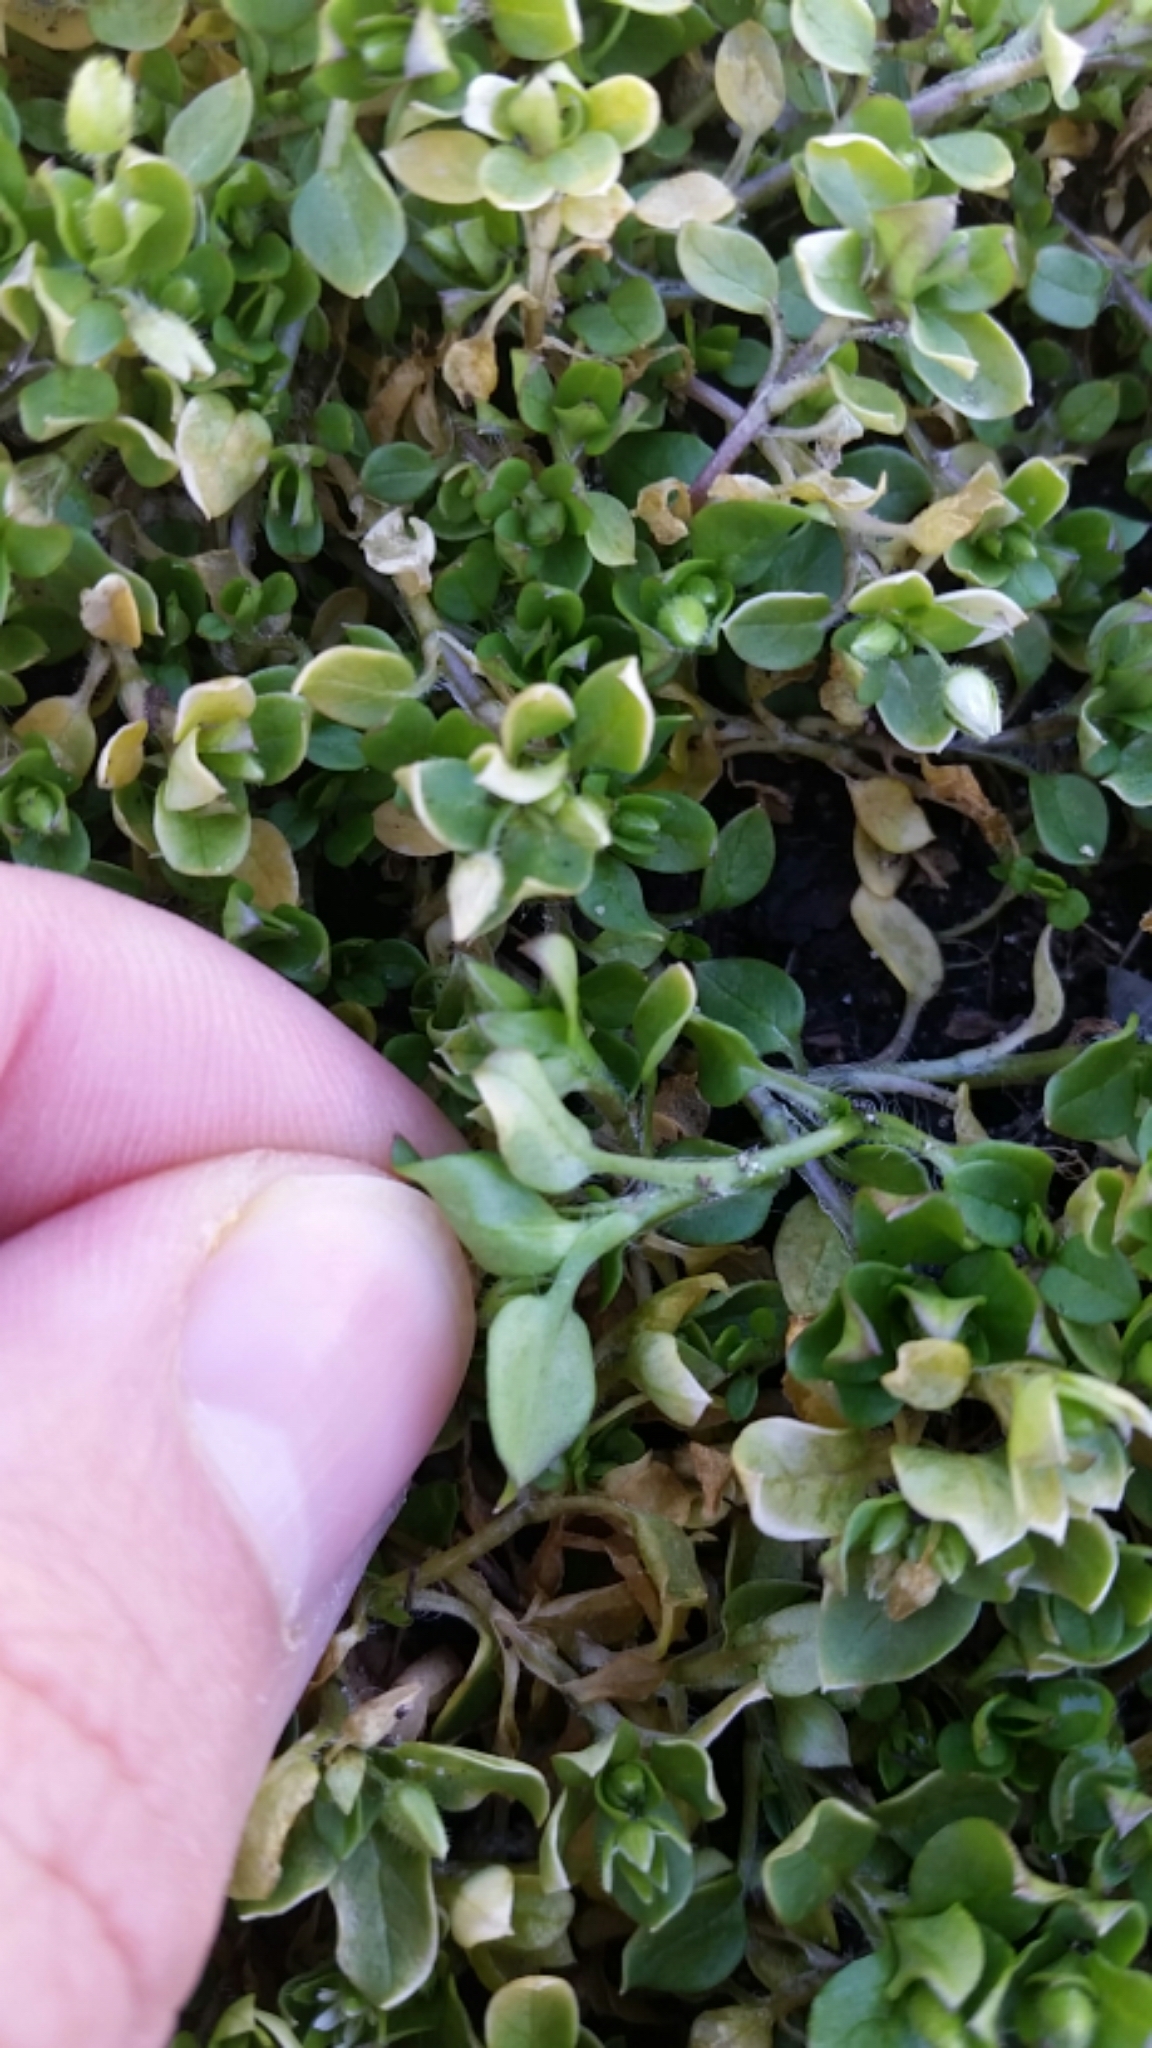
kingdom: Plantae
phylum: Tracheophyta
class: Magnoliopsida
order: Caryophyllales
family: Caryophyllaceae
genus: Stellaria
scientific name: Stellaria media
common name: Common chickweed
